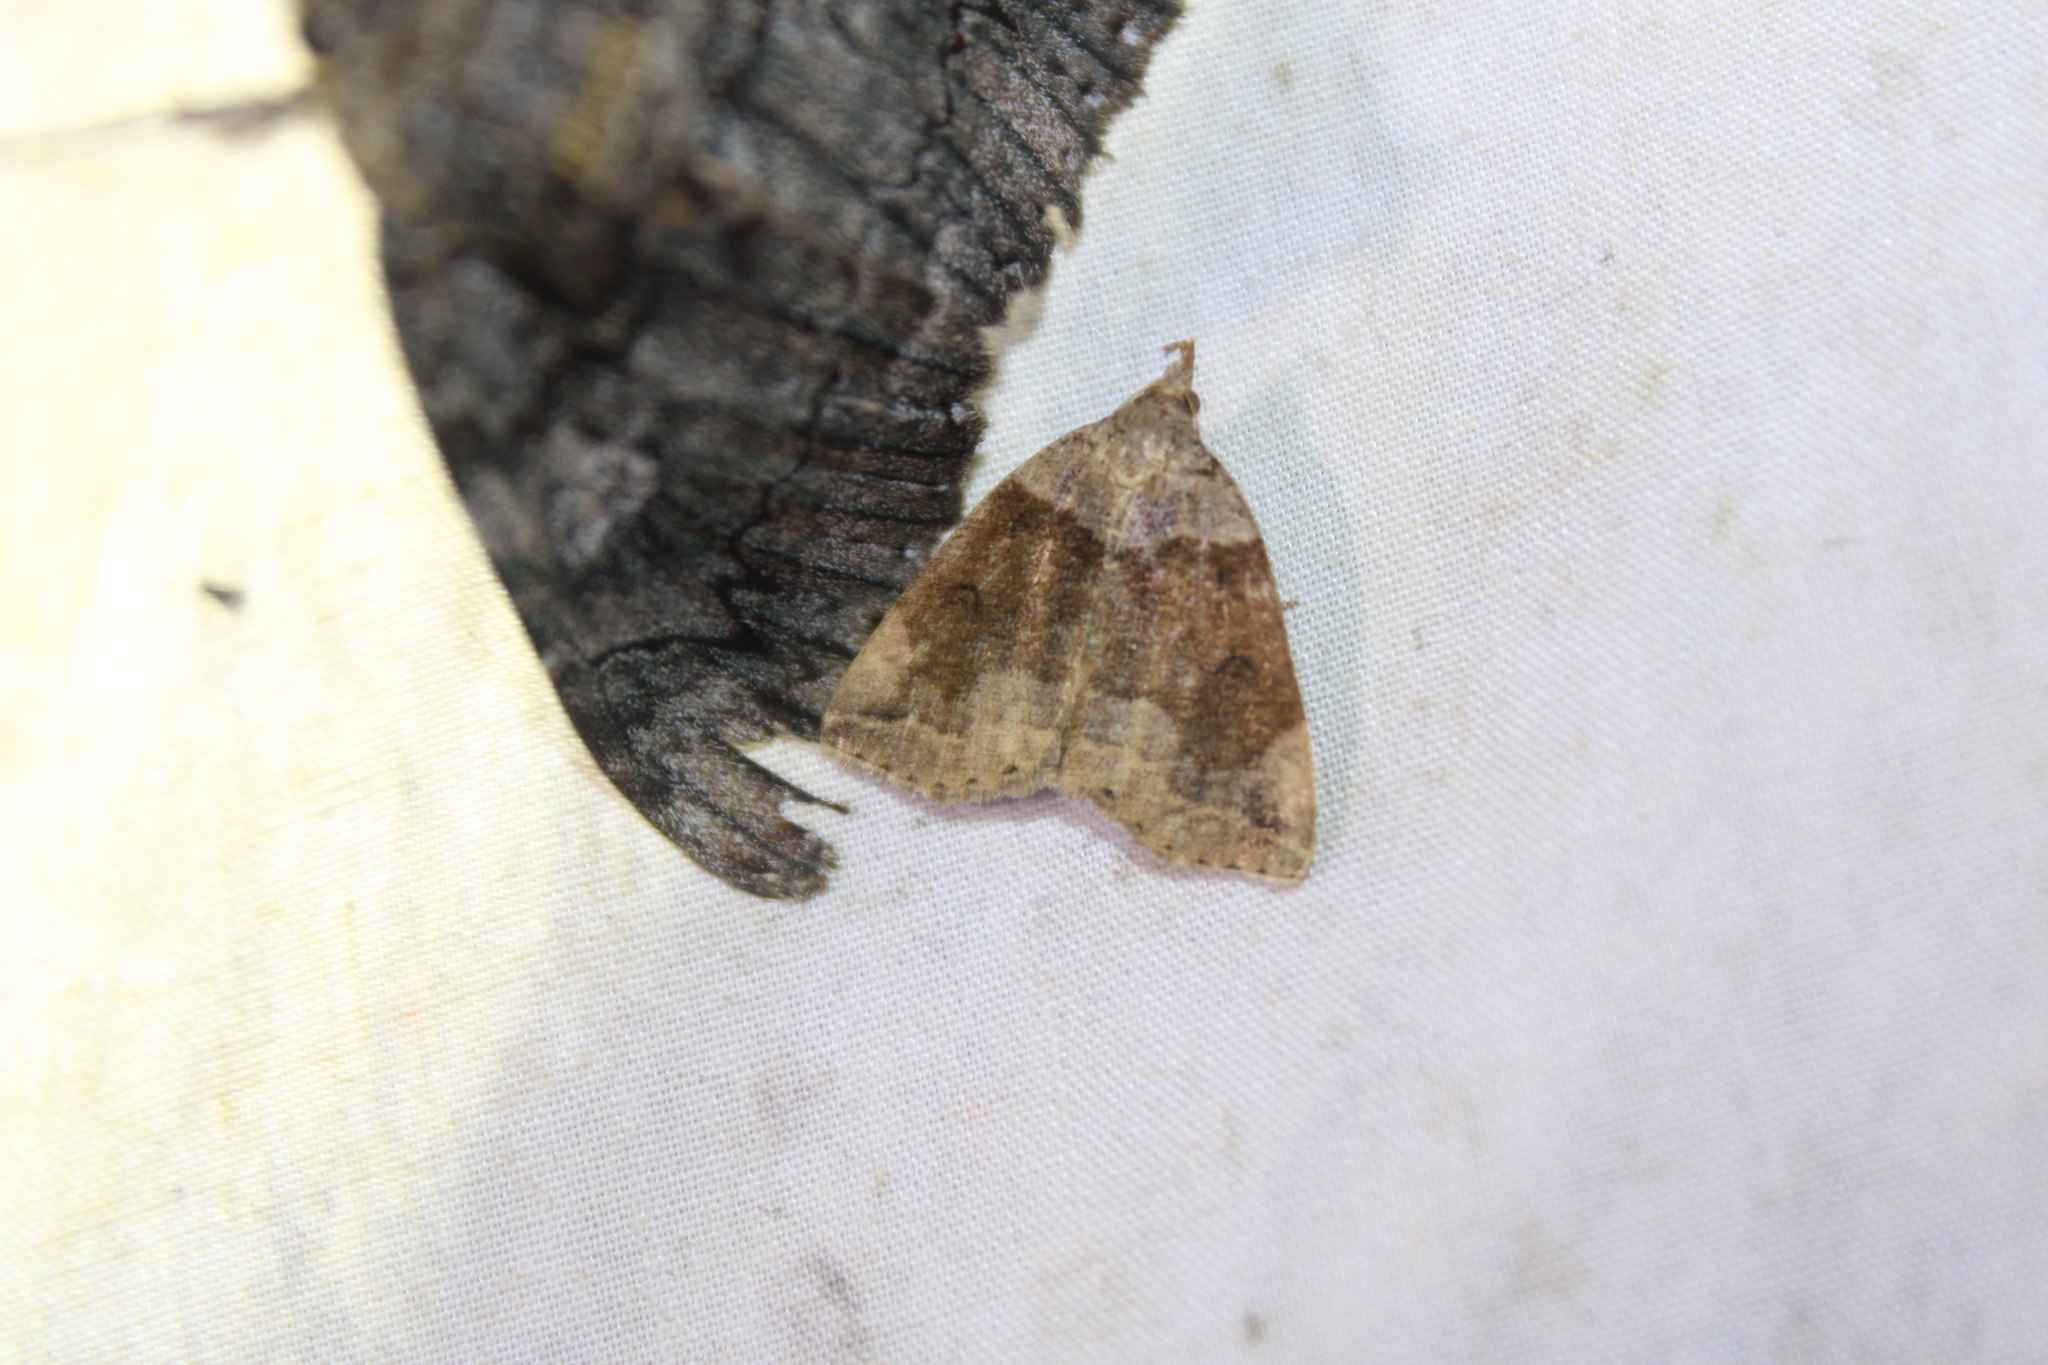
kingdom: Animalia
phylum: Arthropoda
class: Insecta
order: Lepidoptera
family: Erebidae
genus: Zanclognatha
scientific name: Zanclognatha laevigata
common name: Variable fan-foot
